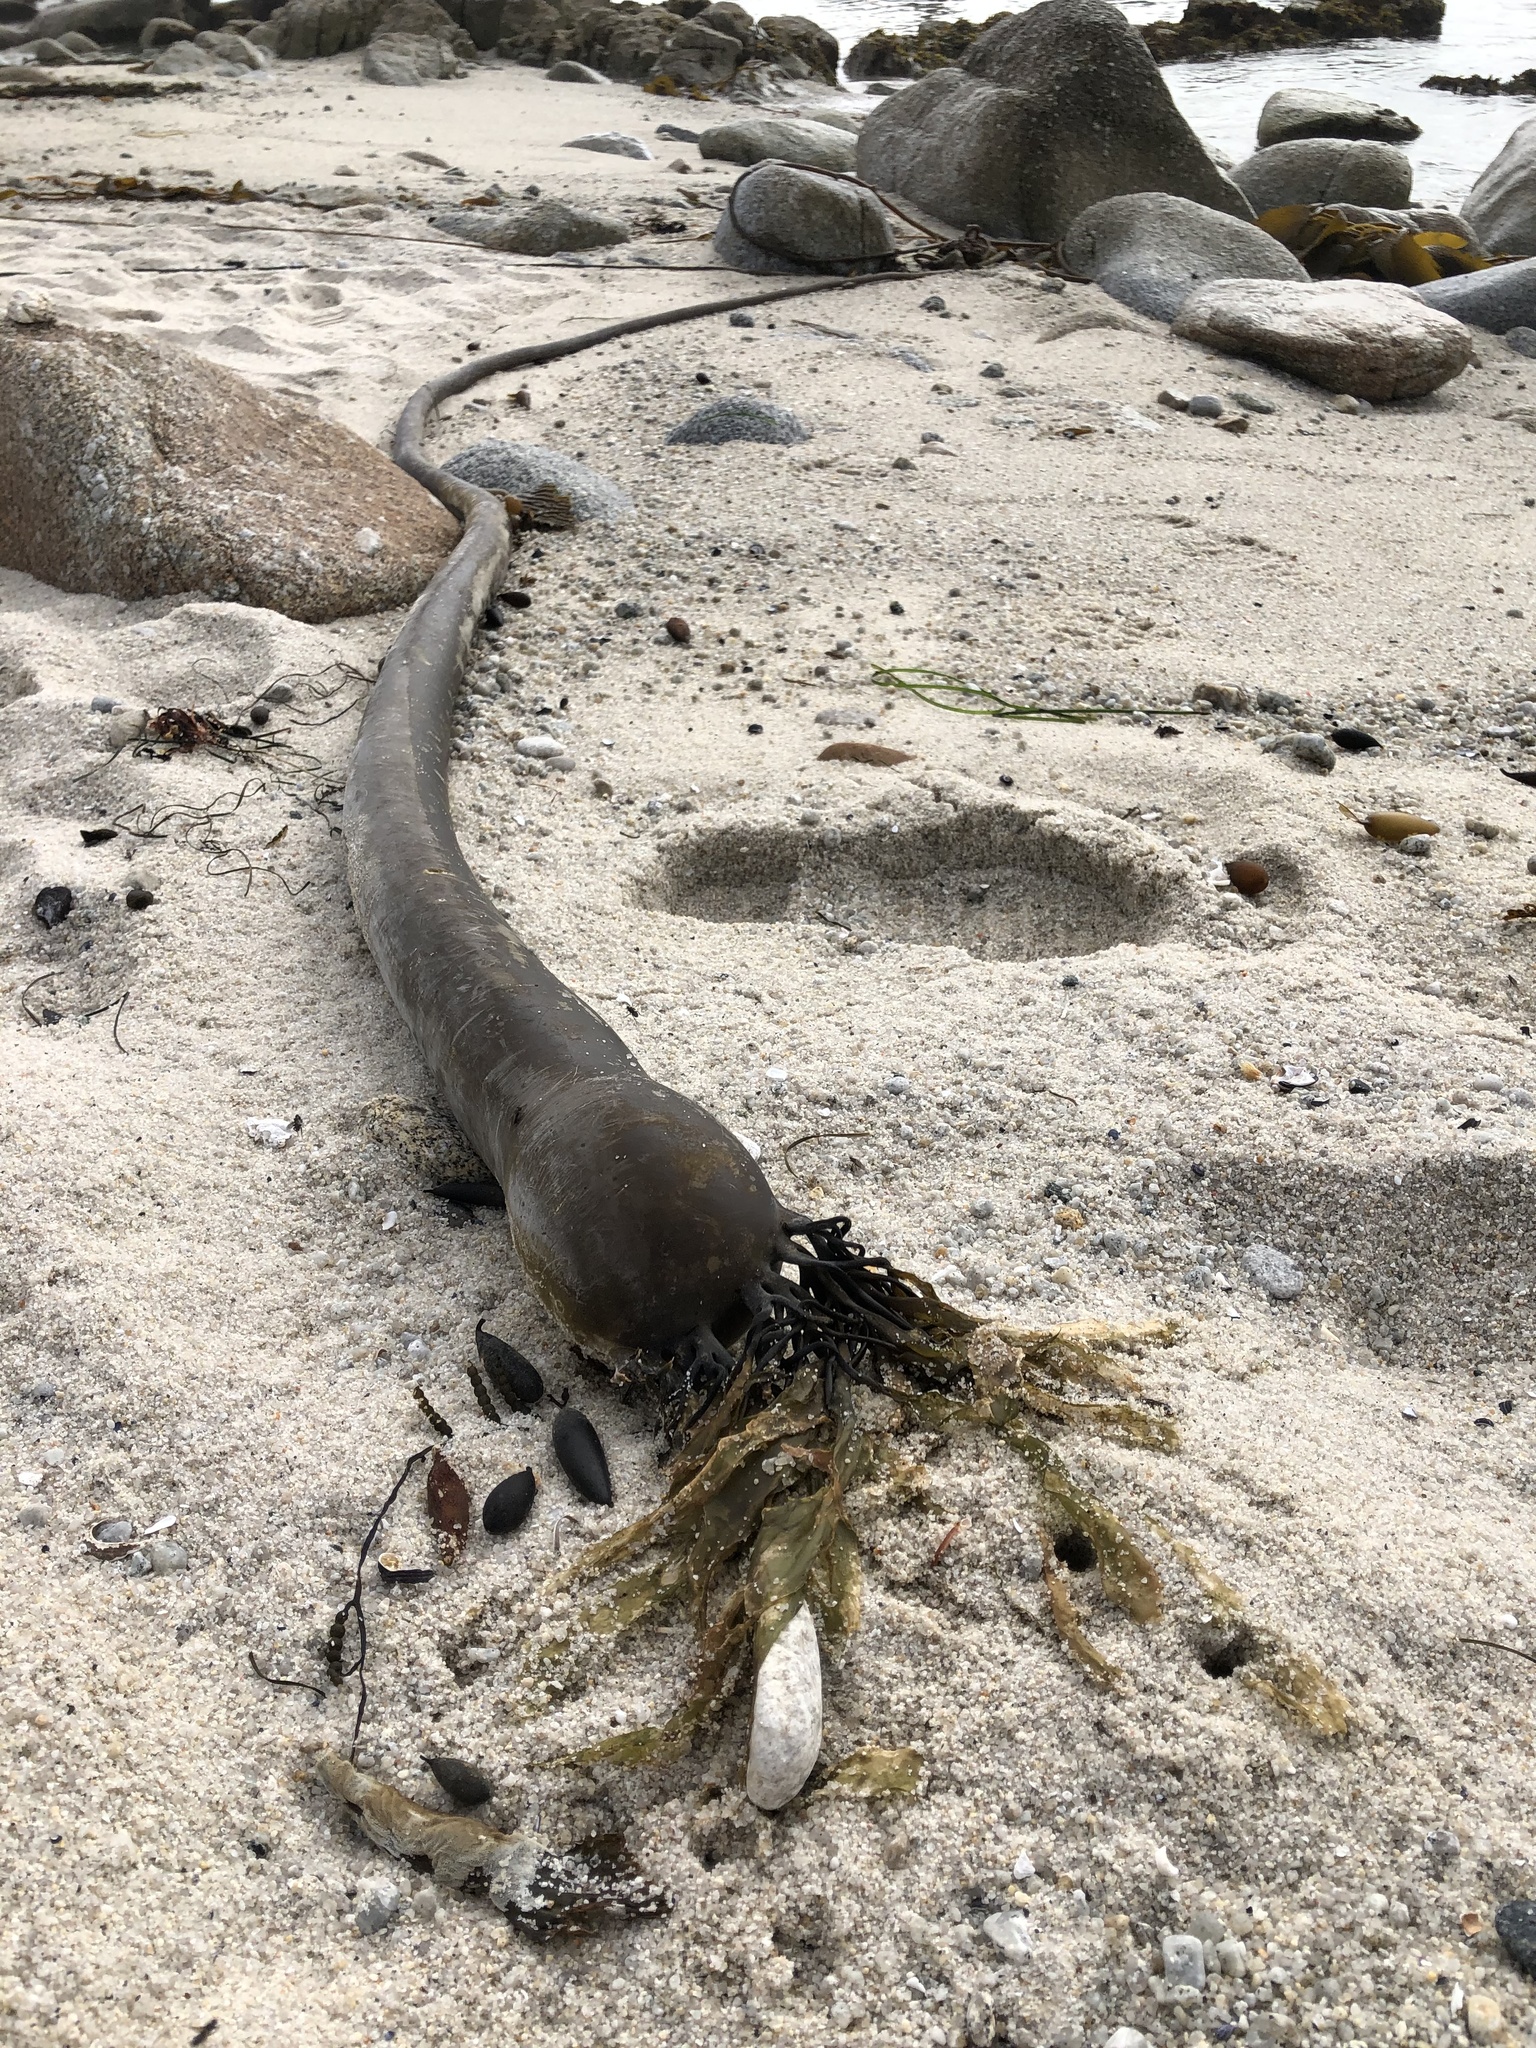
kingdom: Chromista
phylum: Ochrophyta
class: Phaeophyceae
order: Laminariales
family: Laminariaceae
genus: Nereocystis
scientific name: Nereocystis luetkeana
